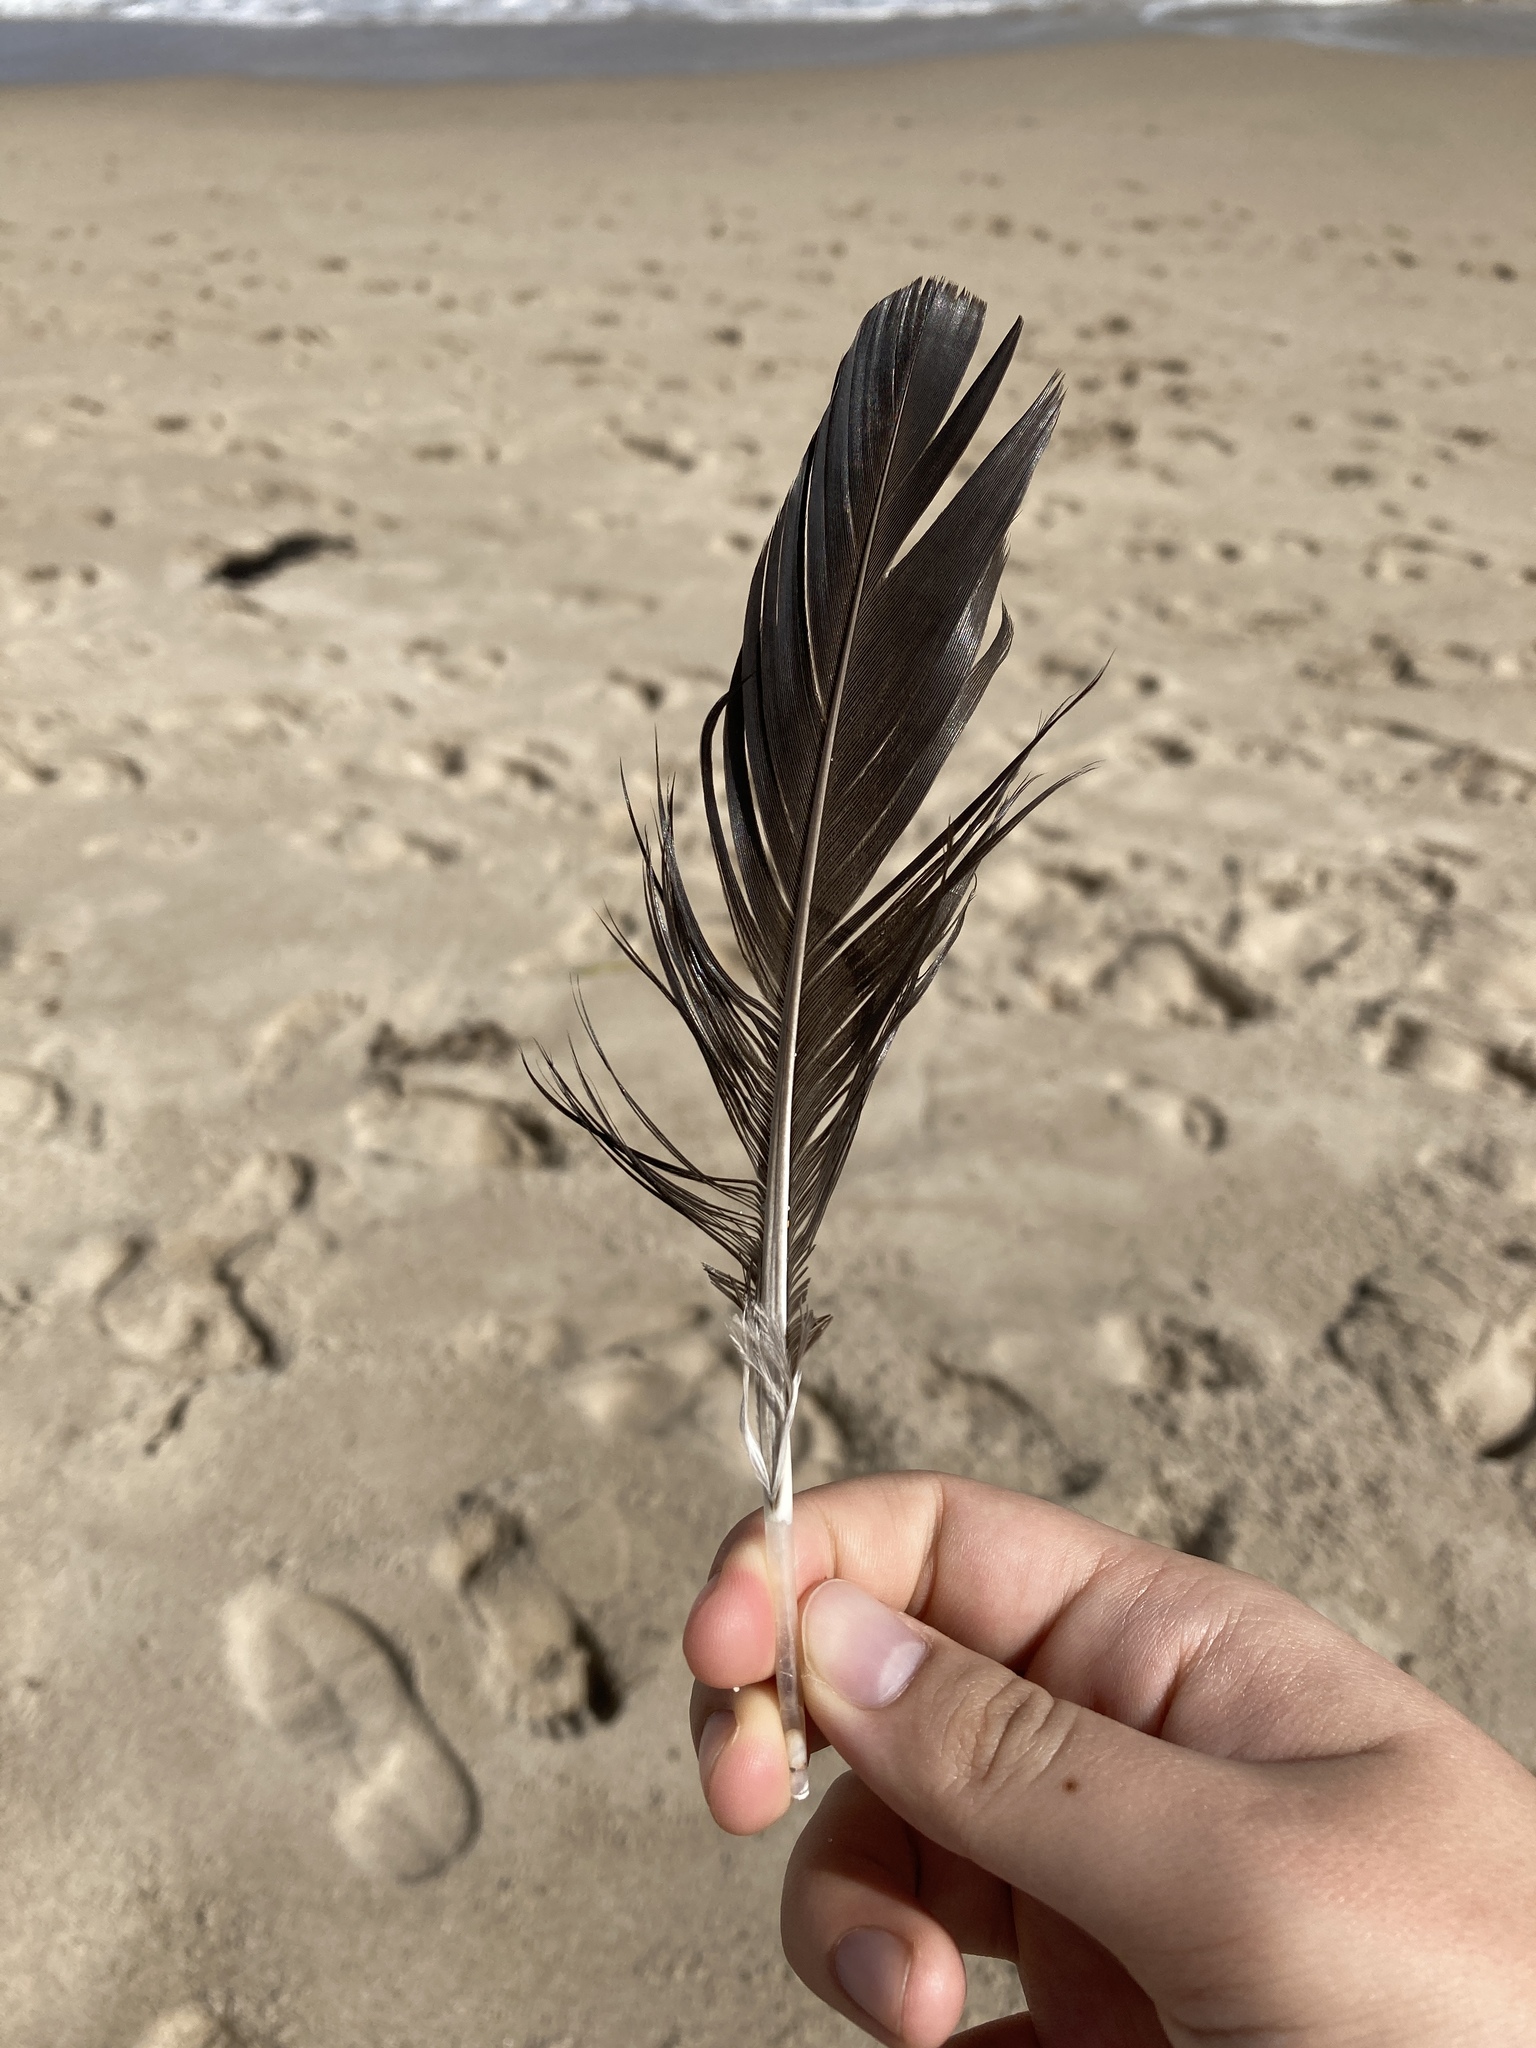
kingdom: Animalia
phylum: Chordata
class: Aves
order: Anseriformes
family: Anatidae
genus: Cairina
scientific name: Cairina moschata
